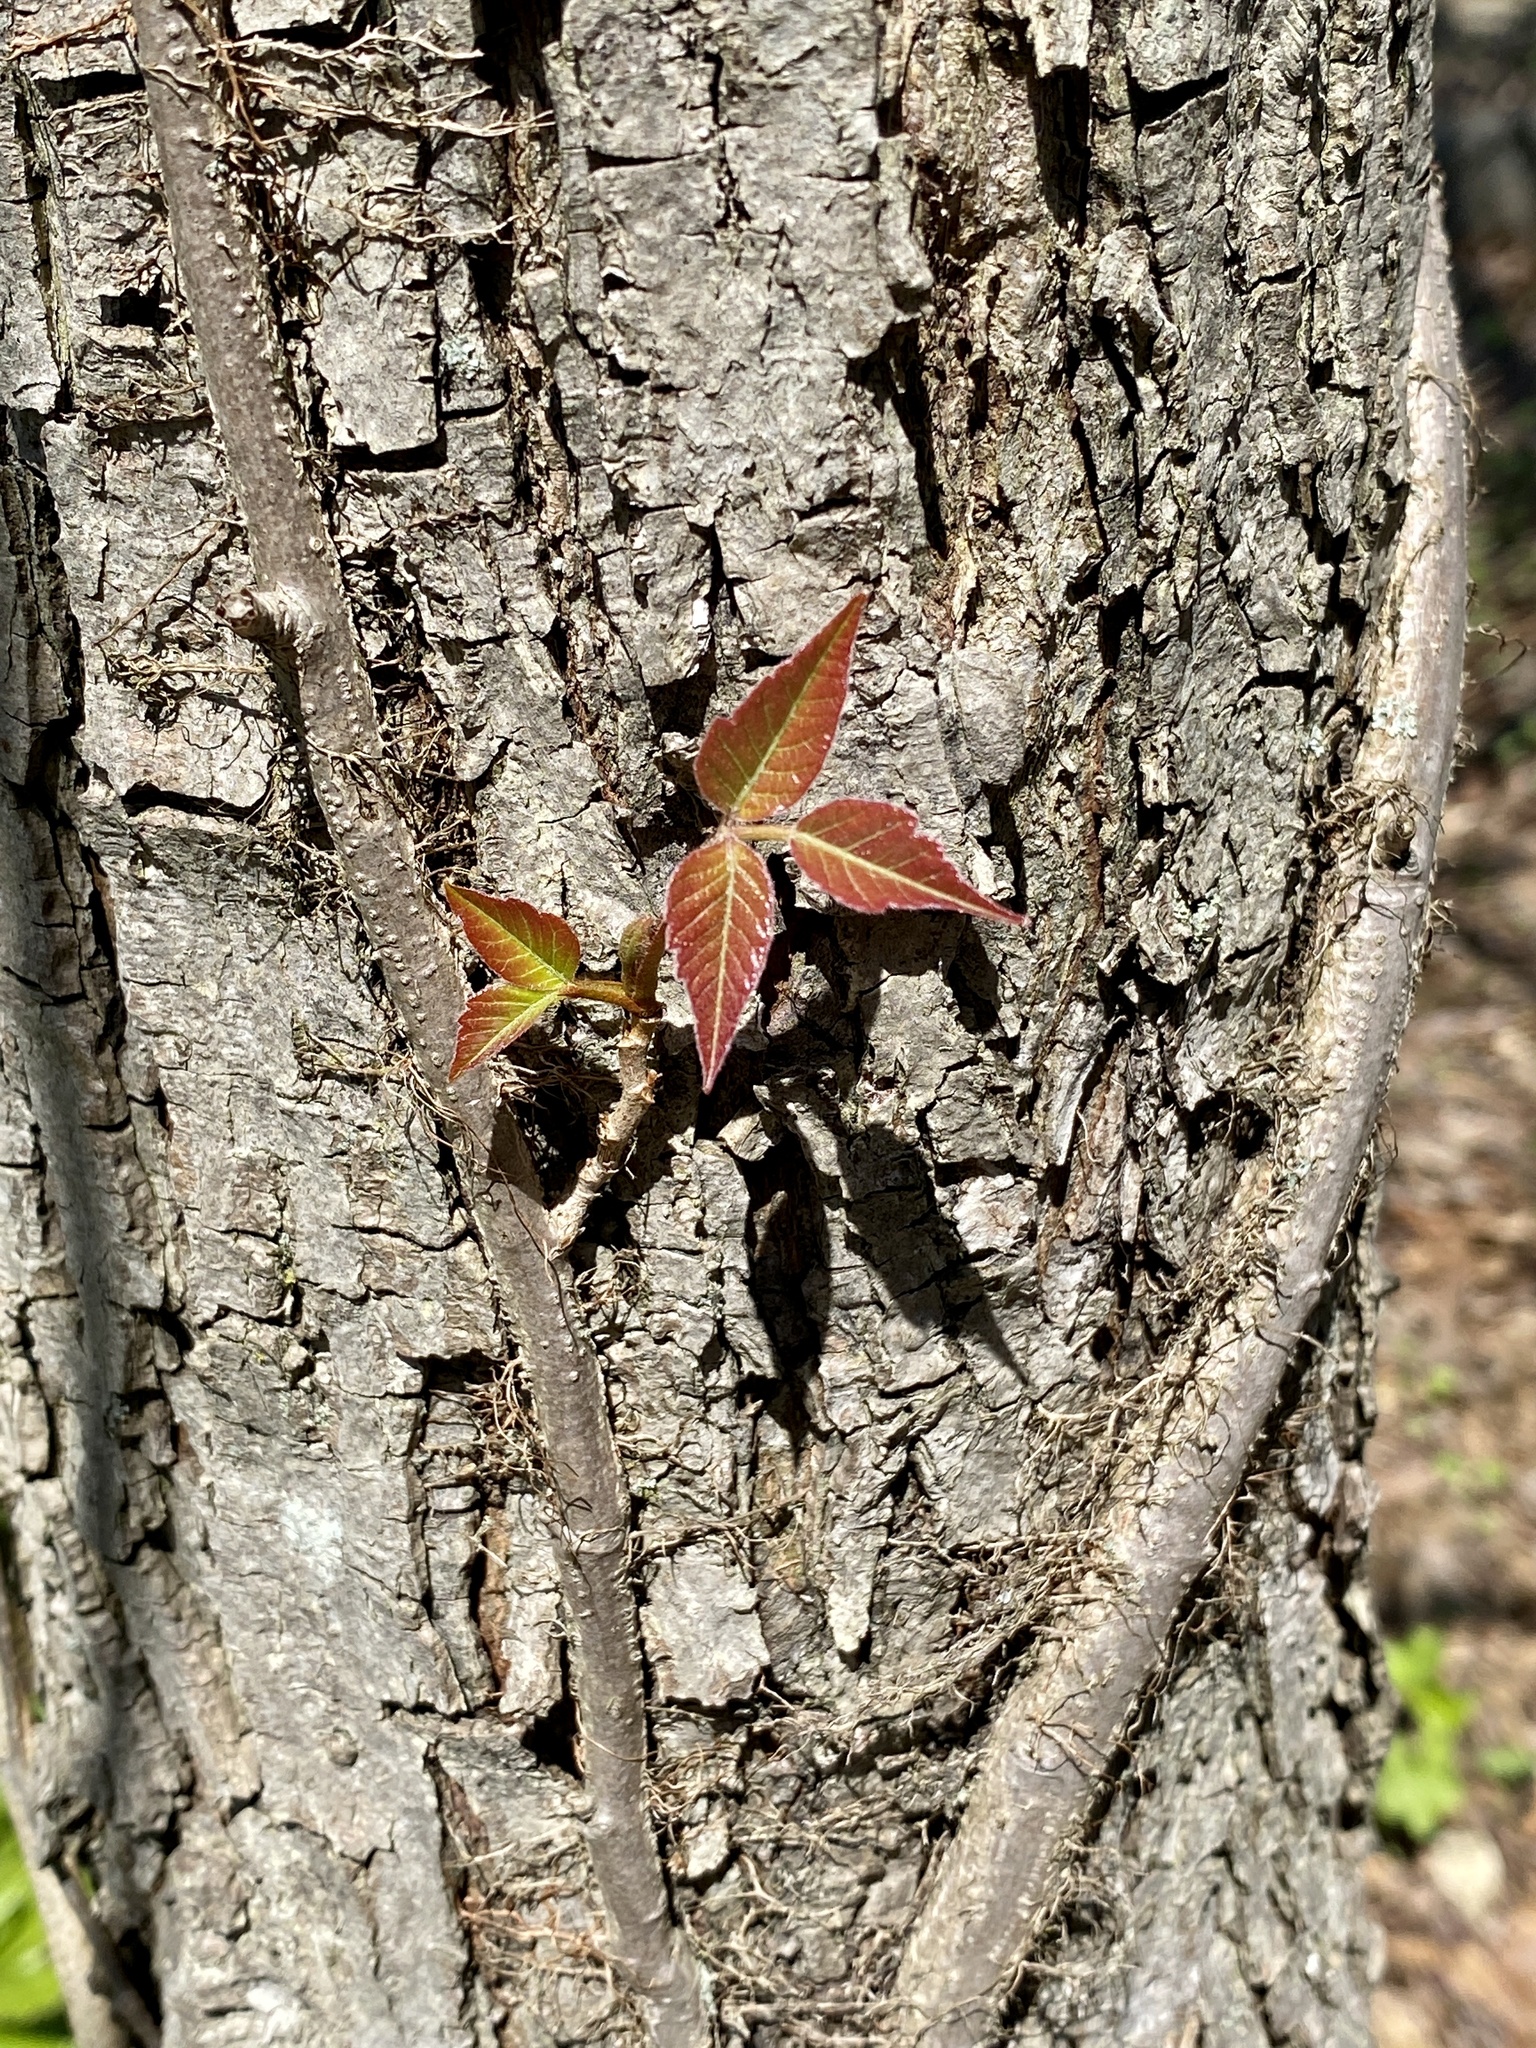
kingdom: Plantae
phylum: Tracheophyta
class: Magnoliopsida
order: Sapindales
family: Anacardiaceae
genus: Toxicodendron
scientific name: Toxicodendron radicans
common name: Poison ivy
